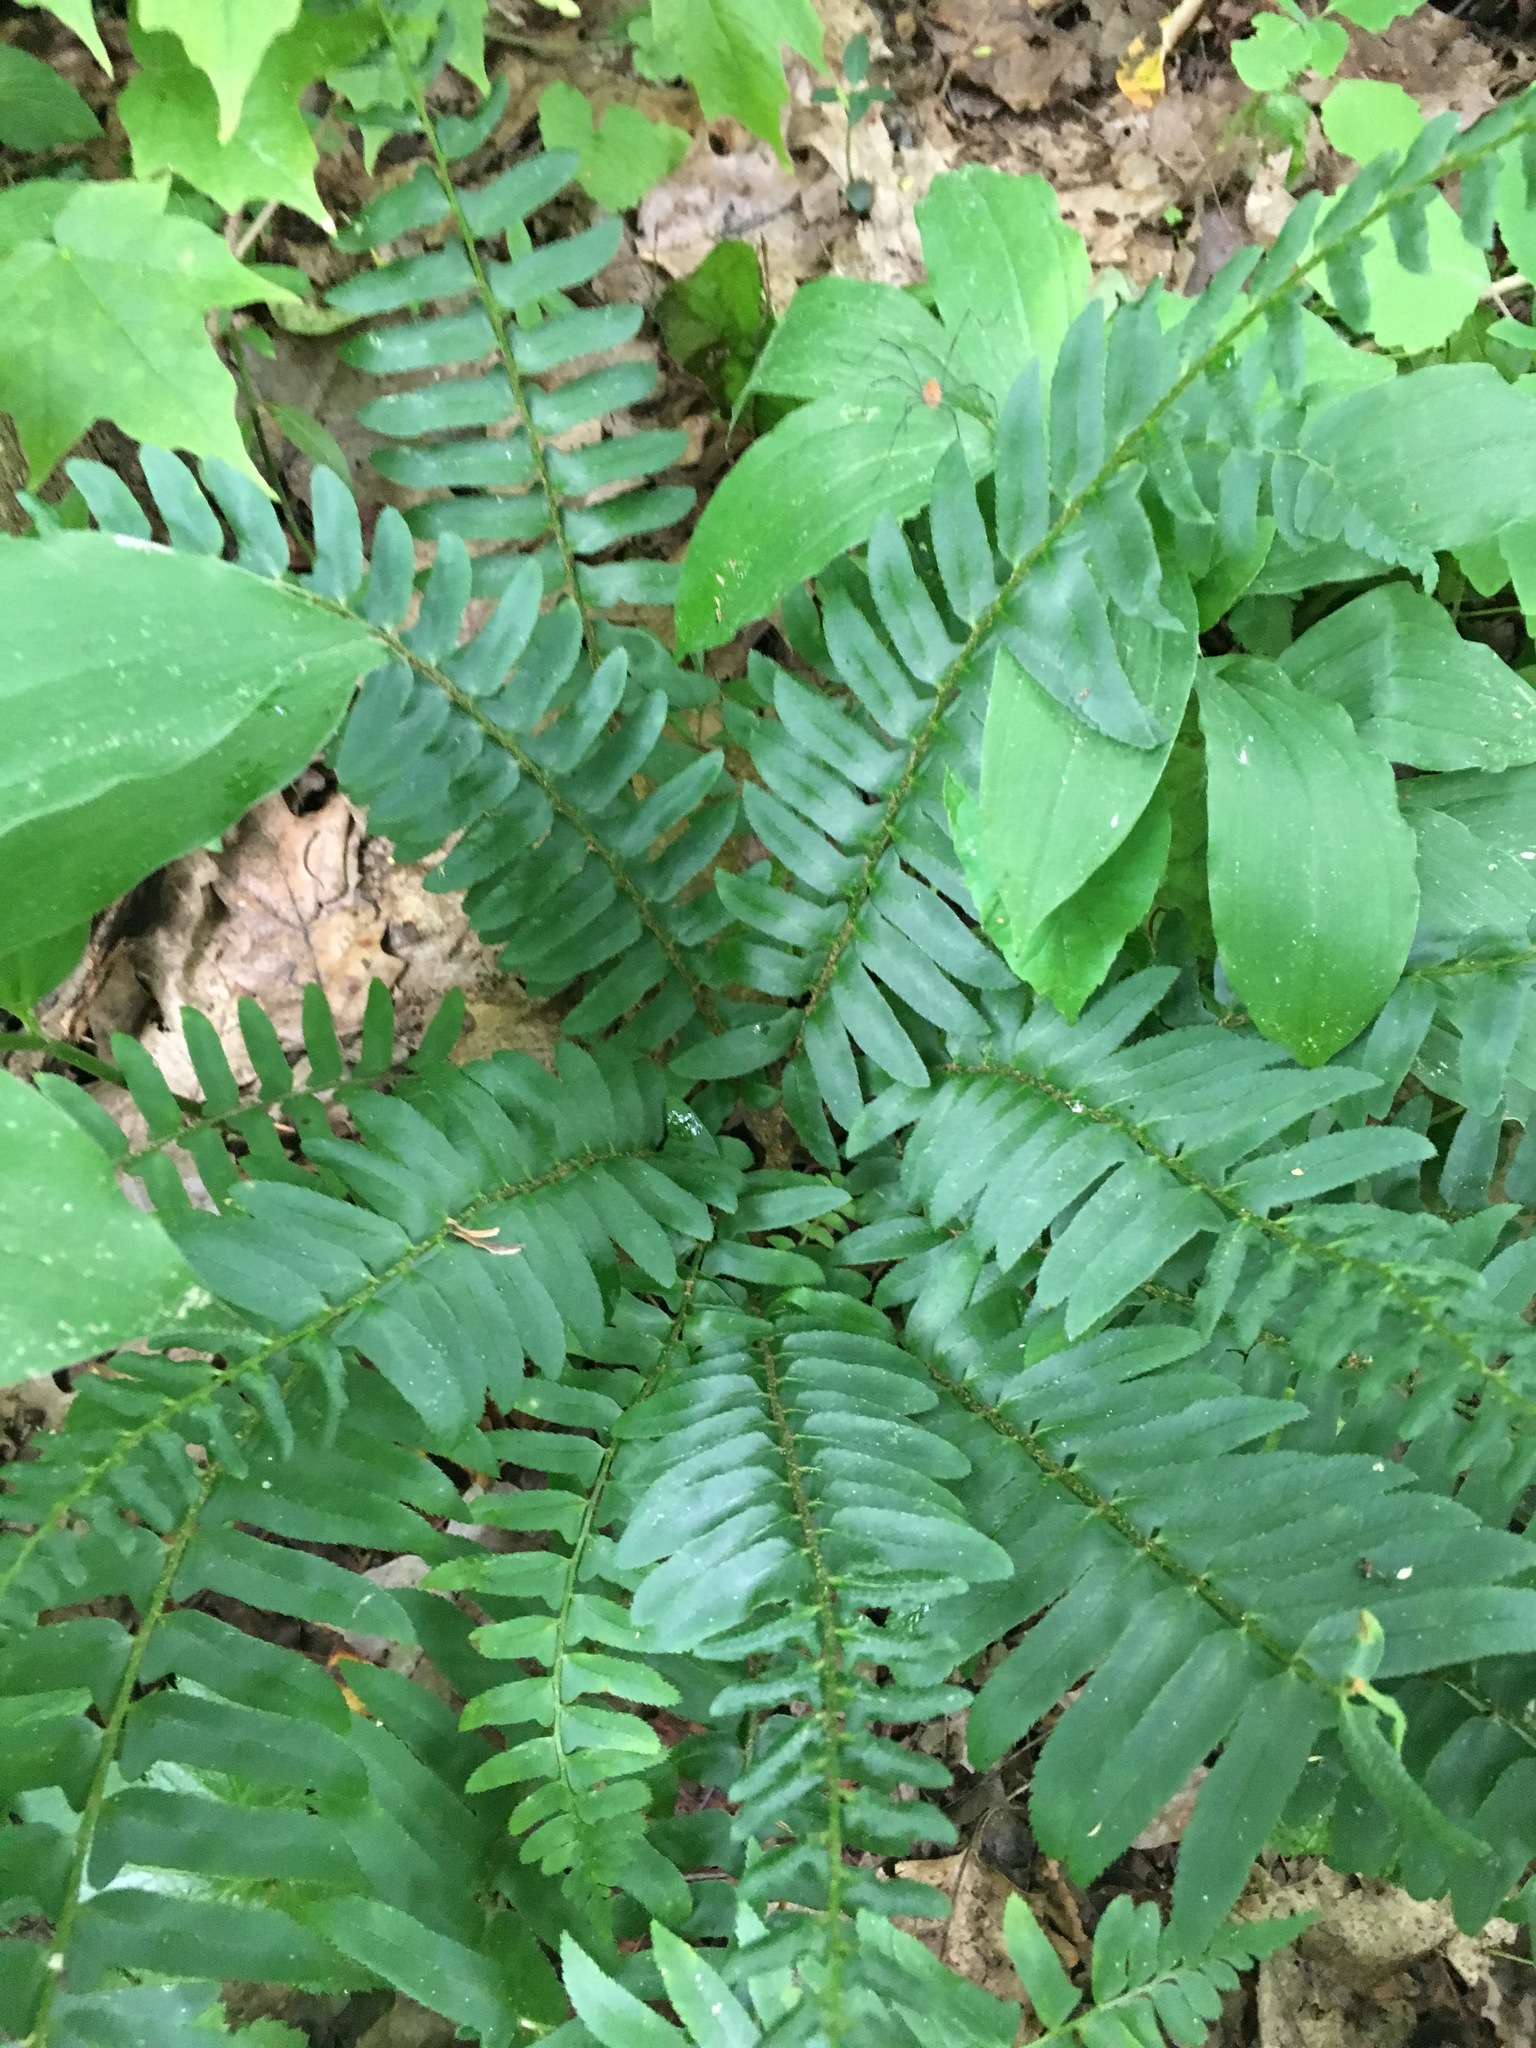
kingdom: Plantae
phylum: Tracheophyta
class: Polypodiopsida
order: Polypodiales
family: Dryopteridaceae
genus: Polystichum
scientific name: Polystichum acrostichoides
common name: Christmas fern
